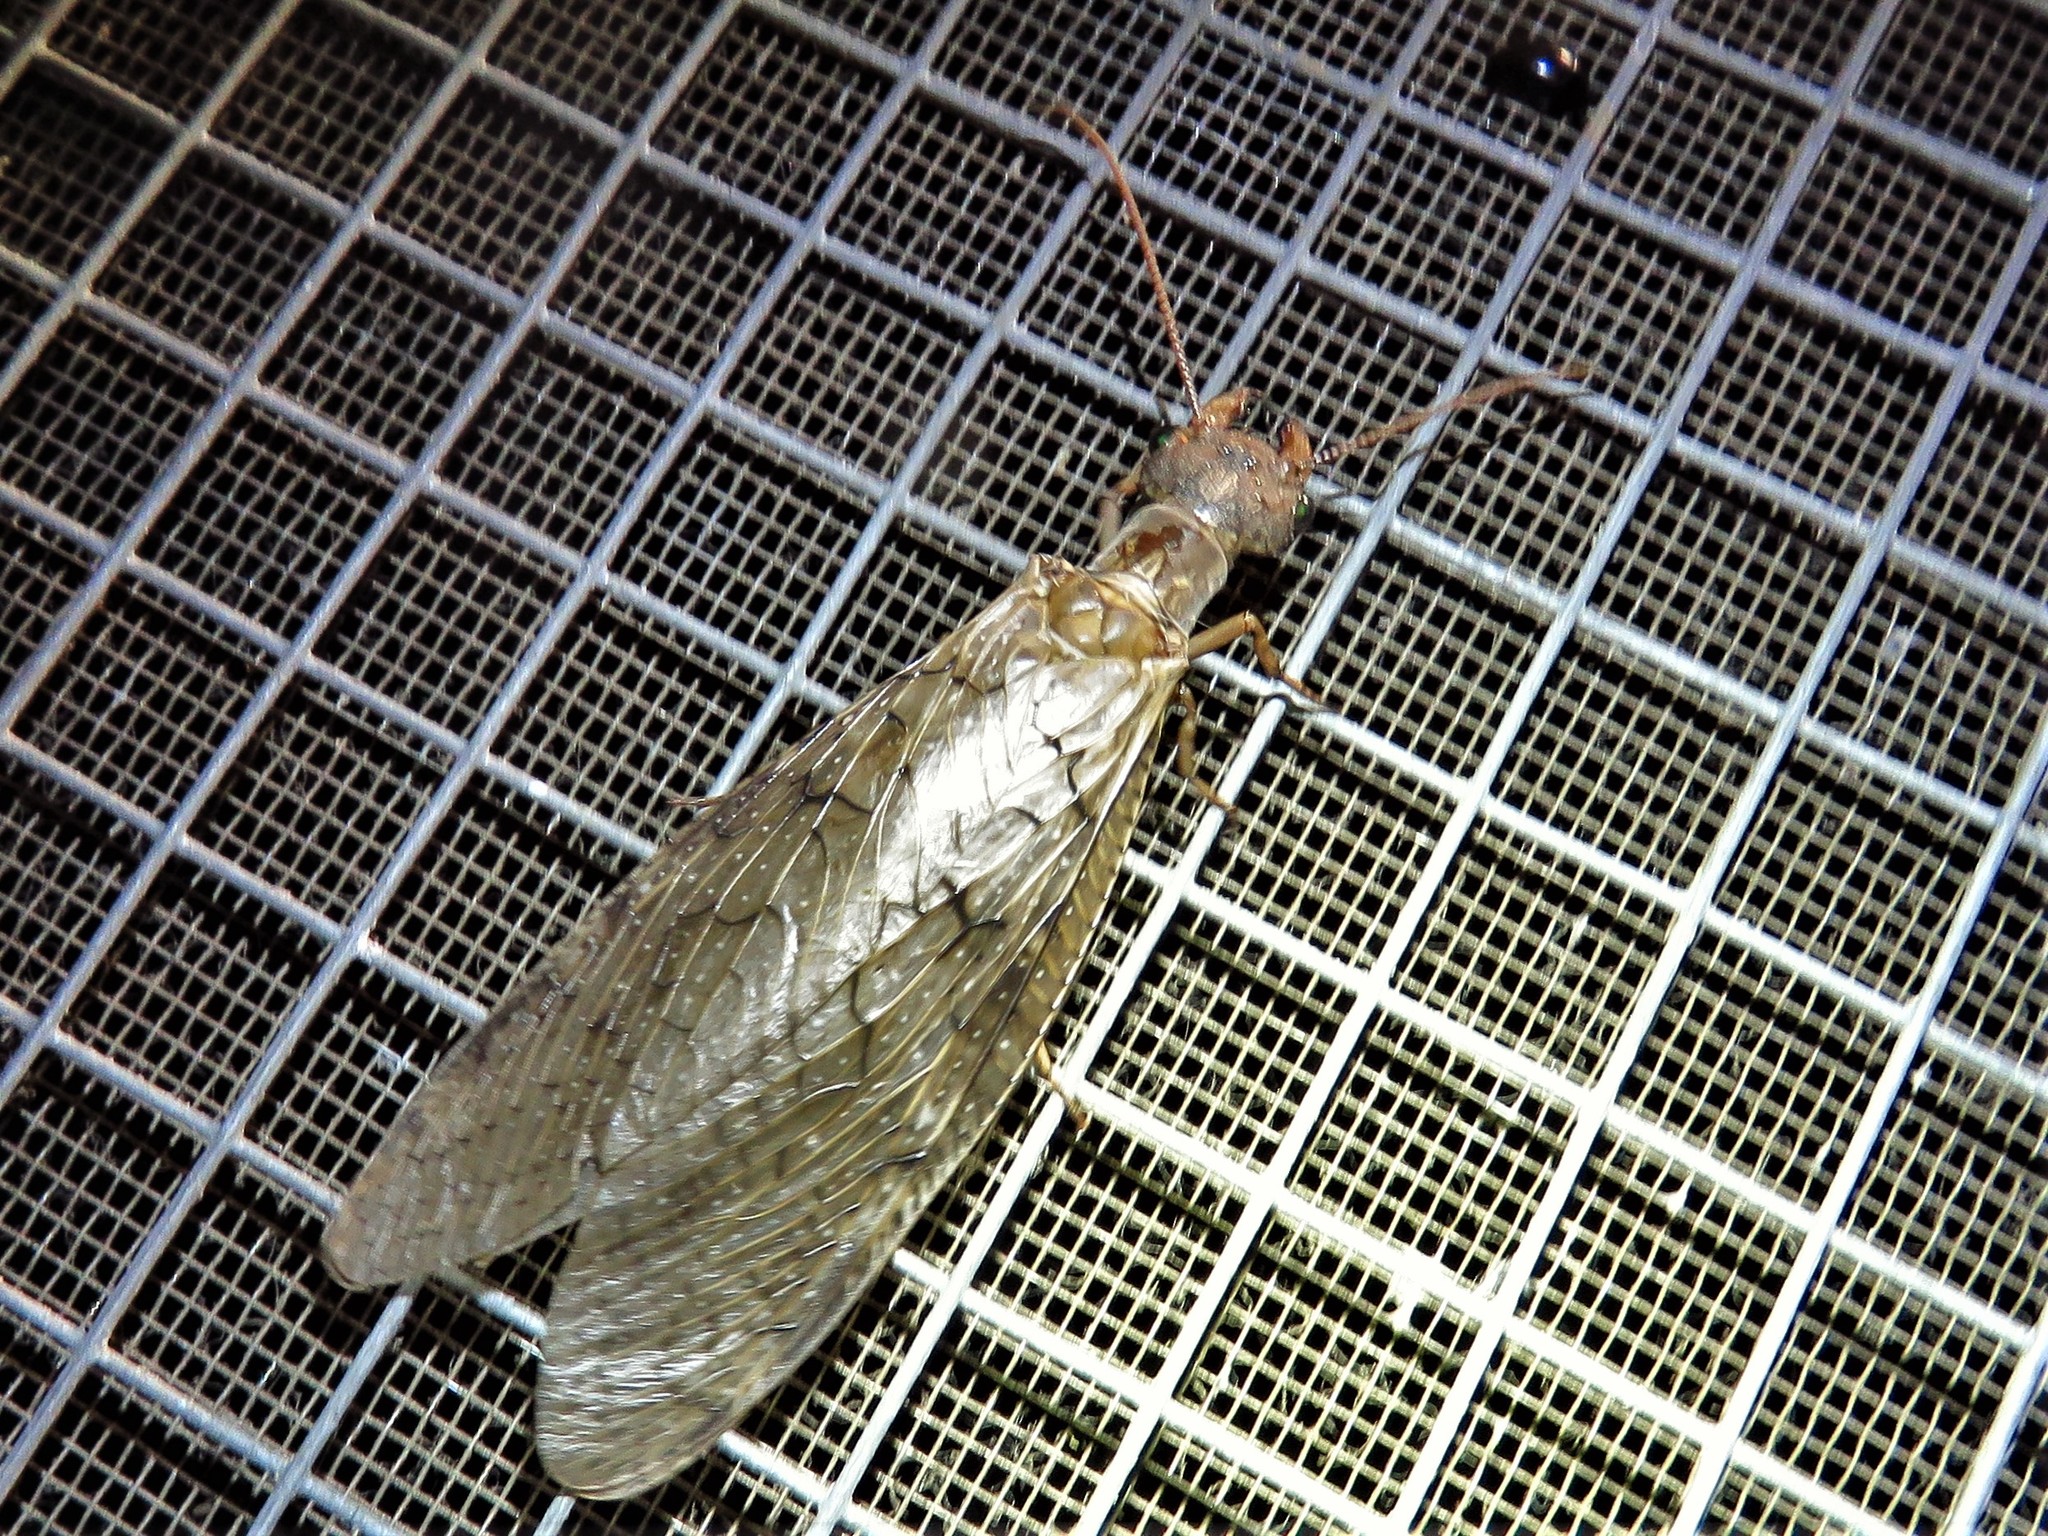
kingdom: Animalia
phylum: Arthropoda
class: Insecta
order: Megaloptera
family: Corydalidae
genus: Corydalus
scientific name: Corydalus cornutus
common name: Dobsonfly
